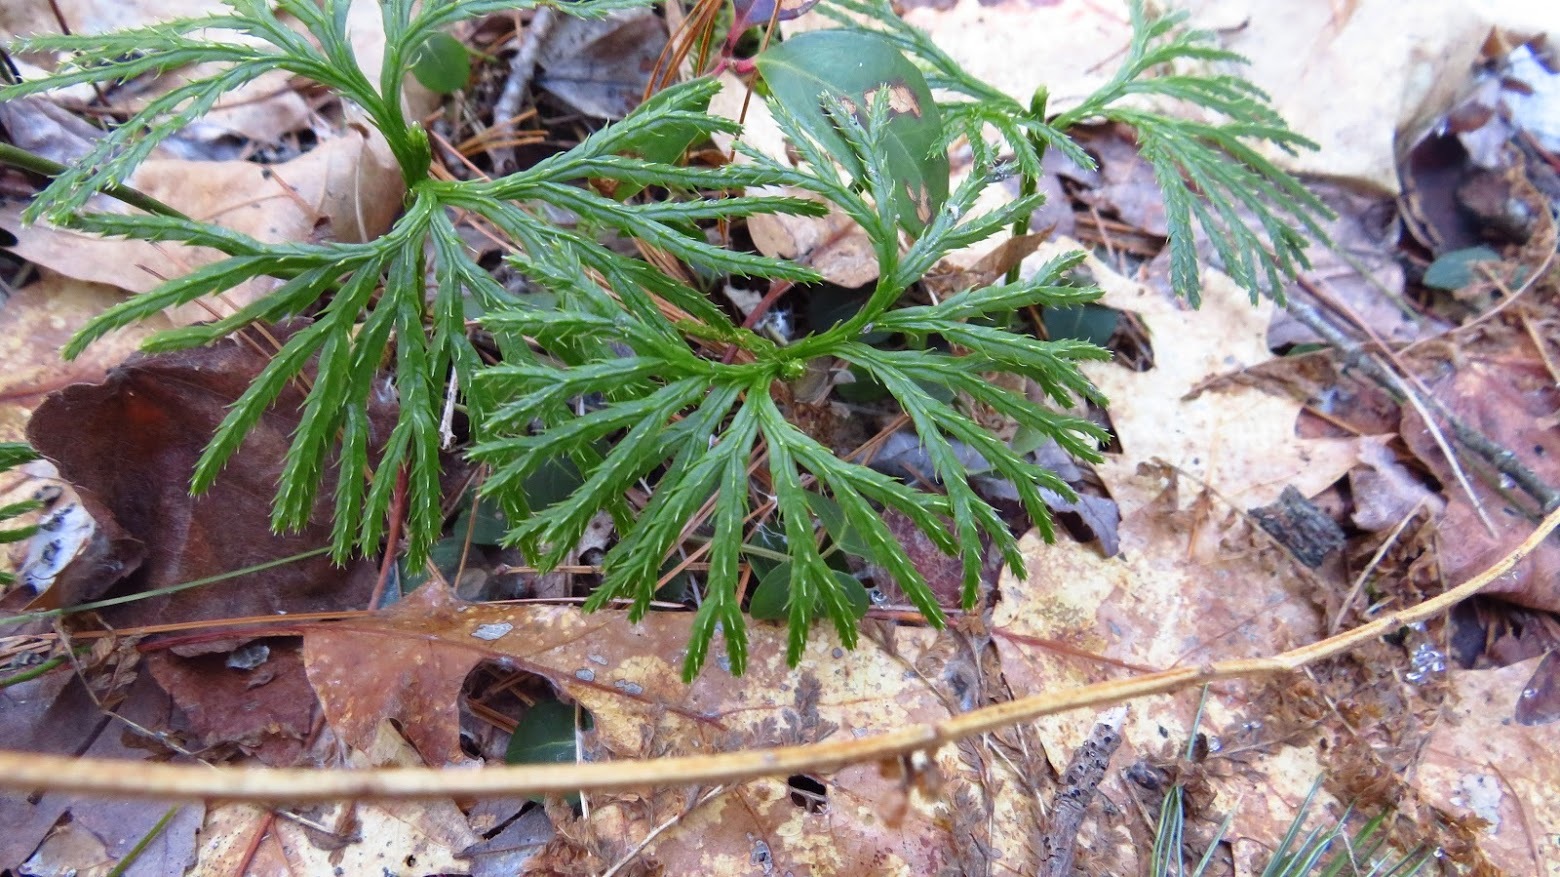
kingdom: Plantae
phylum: Tracheophyta
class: Lycopodiopsida
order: Lycopodiales
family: Lycopodiaceae
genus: Diphasiastrum
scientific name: Diphasiastrum digitatum
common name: Southern running-pine
